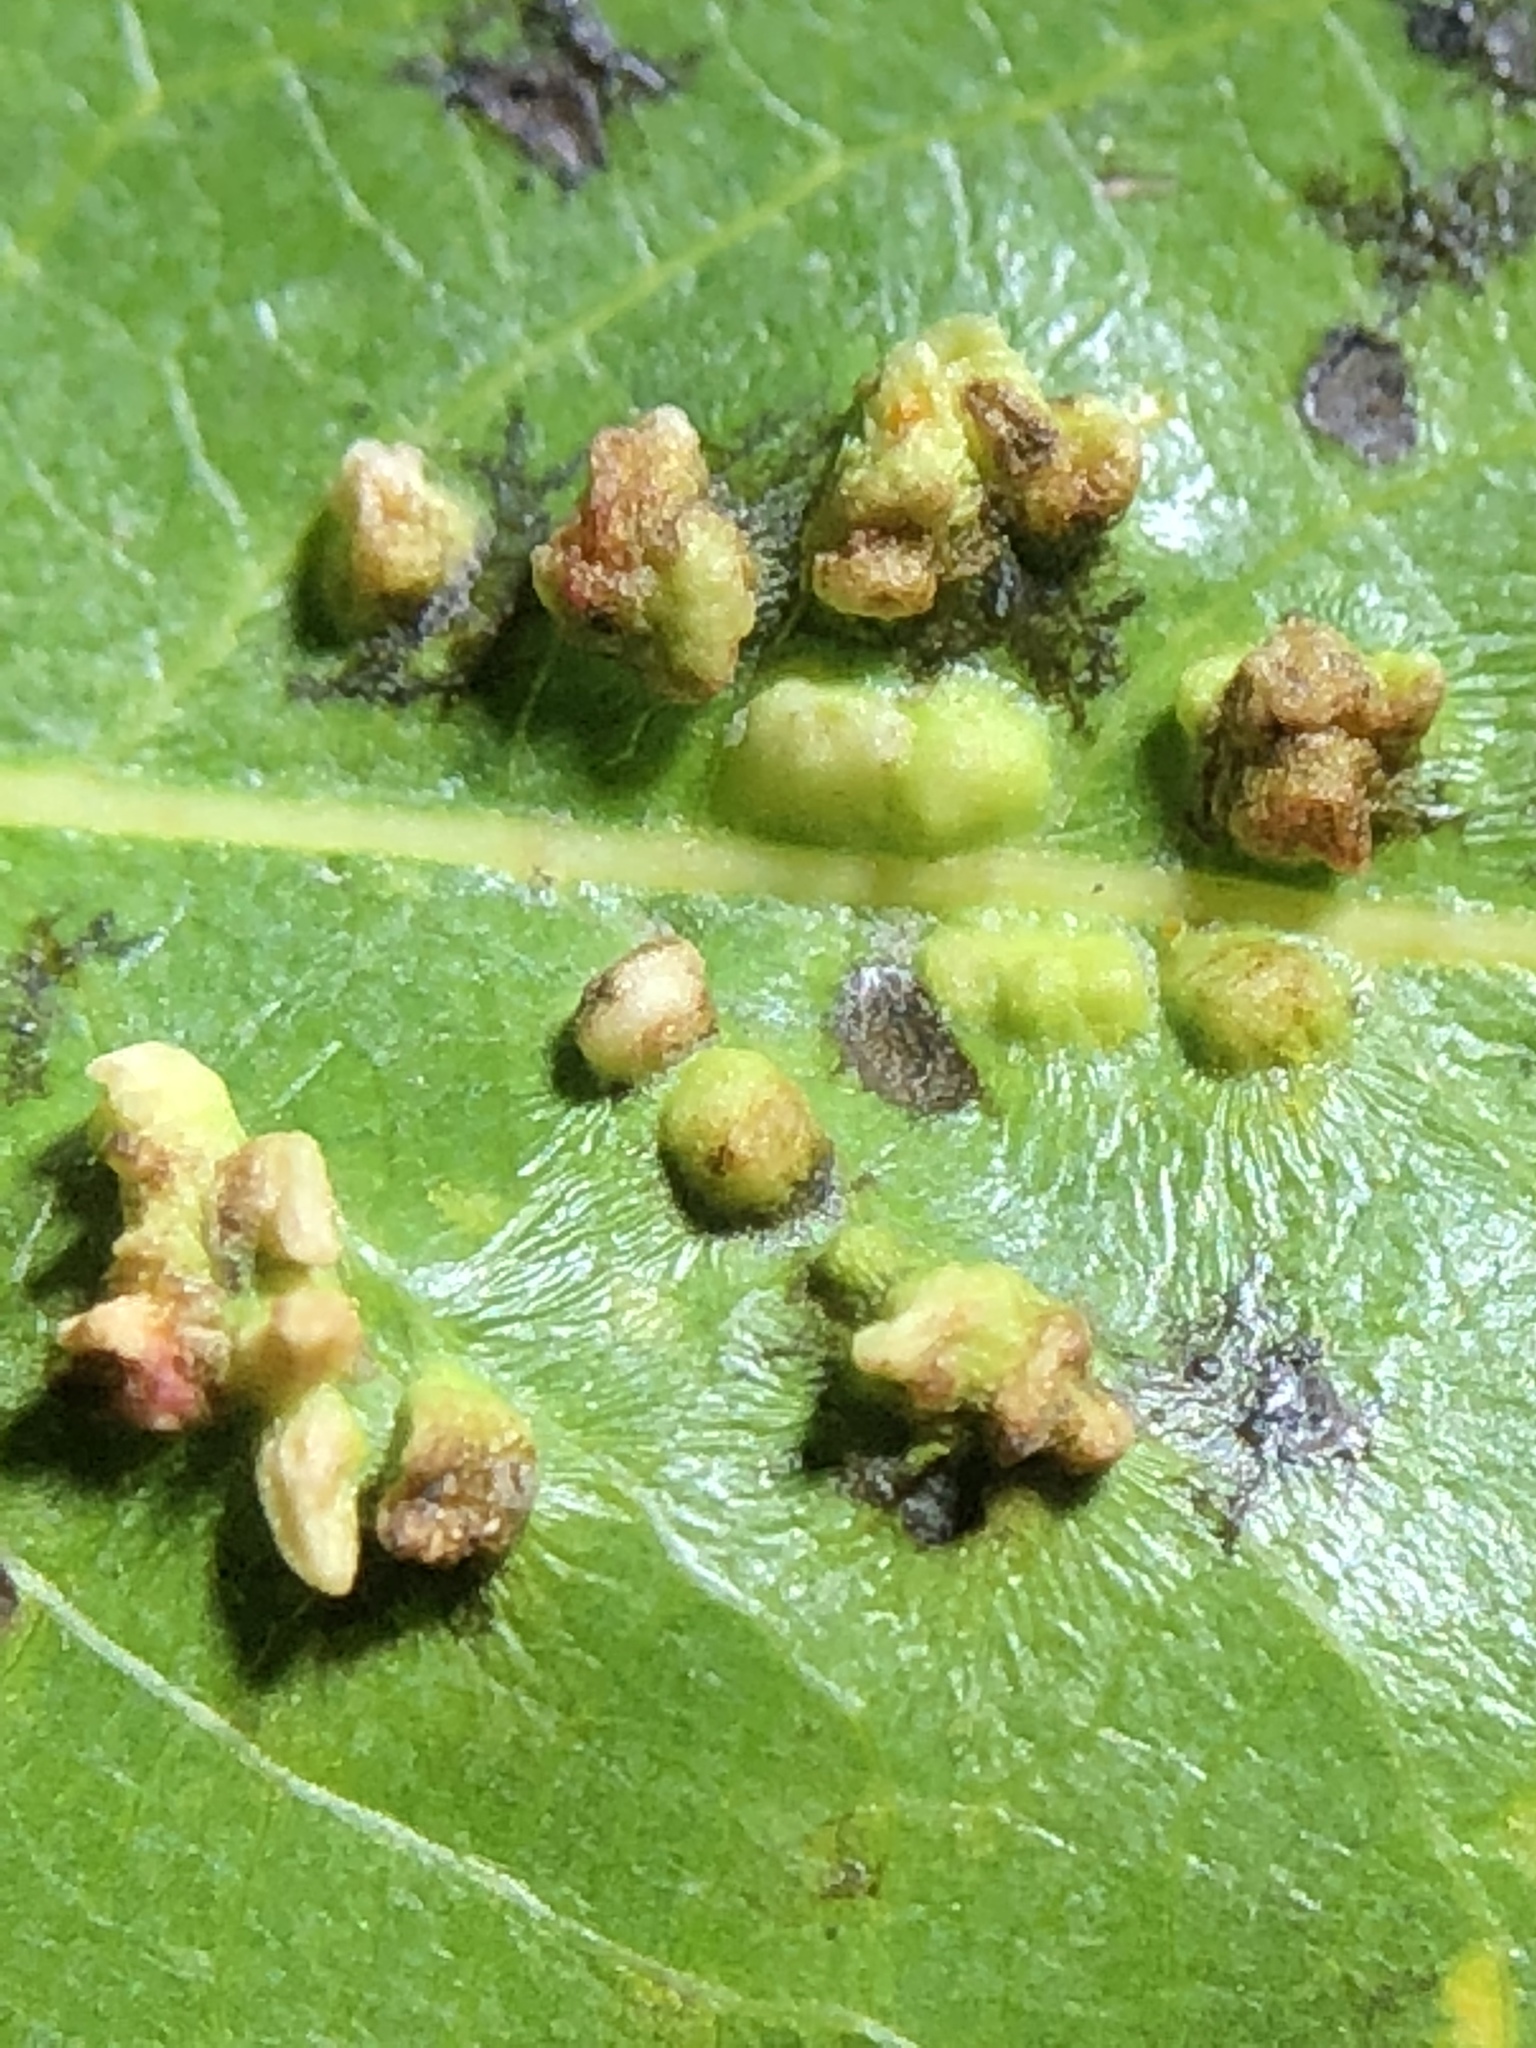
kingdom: Animalia
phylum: Arthropoda
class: Arachnida
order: Trombidiformes
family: Eriophyidae
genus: Aculus
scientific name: Aculus tetanothrix
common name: Willow bead gall mite
